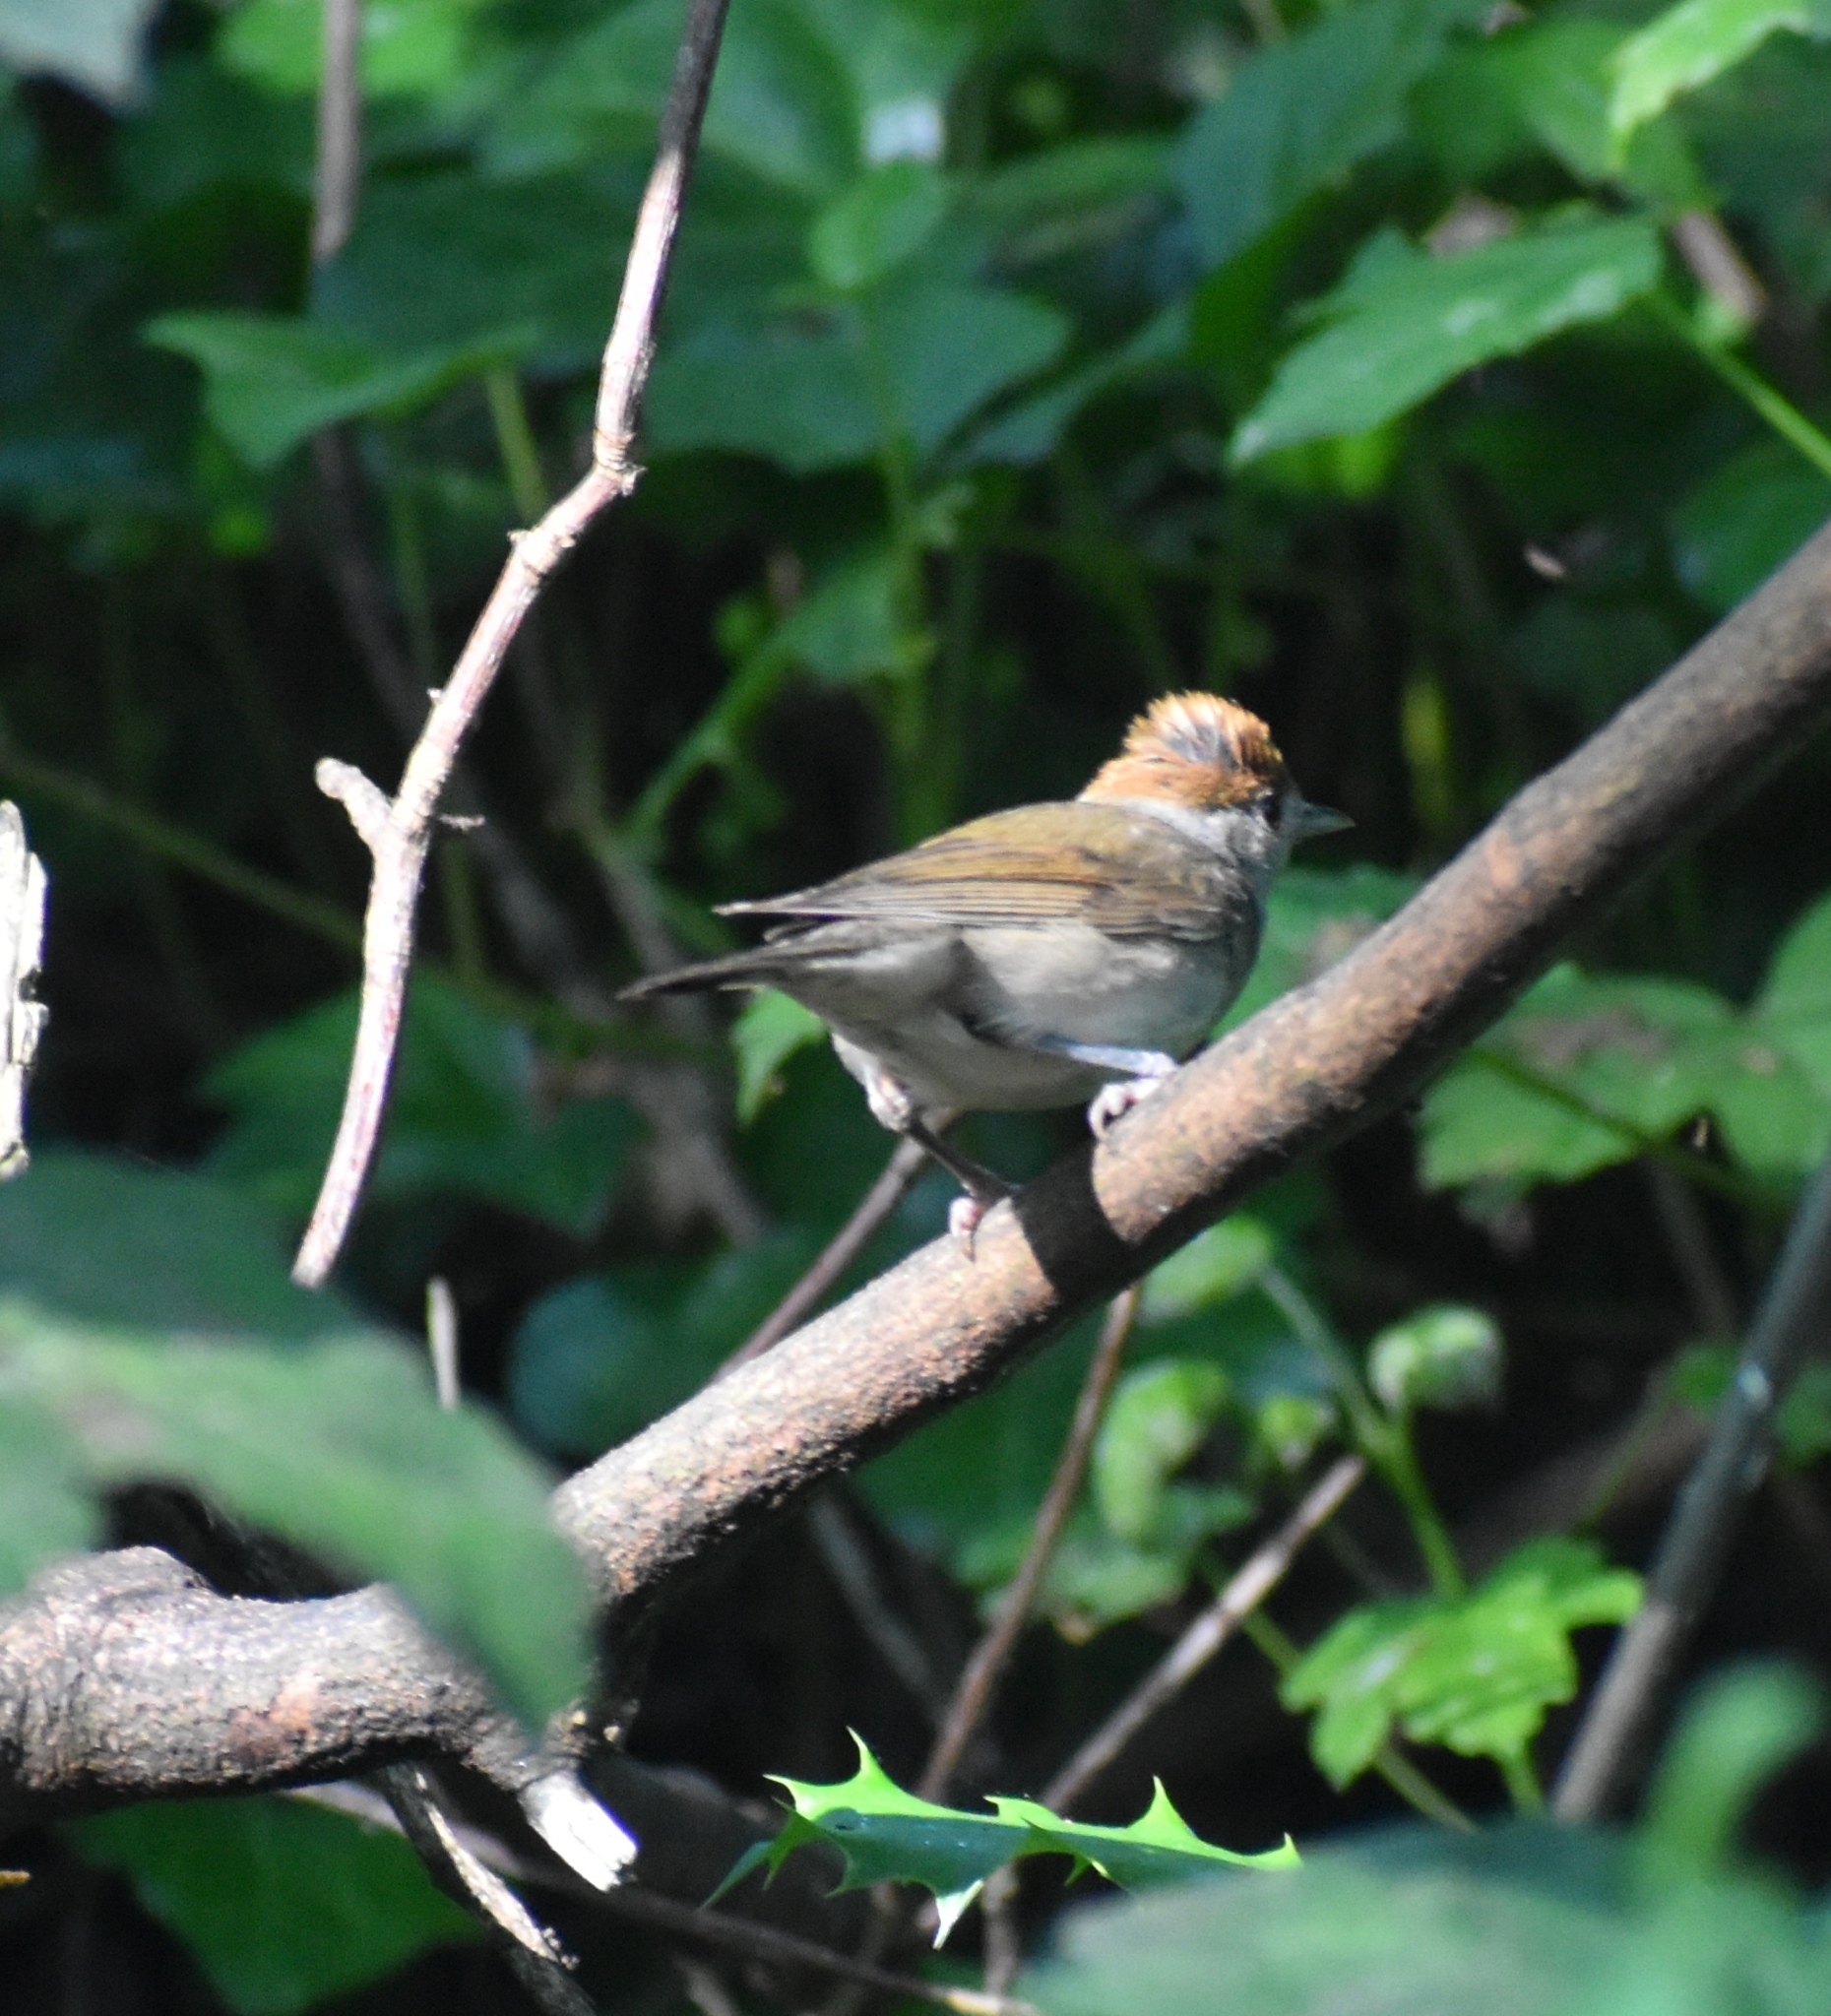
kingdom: Animalia
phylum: Chordata
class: Aves
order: Passeriformes
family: Sylviidae
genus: Sylvia
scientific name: Sylvia atricapilla
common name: Eurasian blackcap
